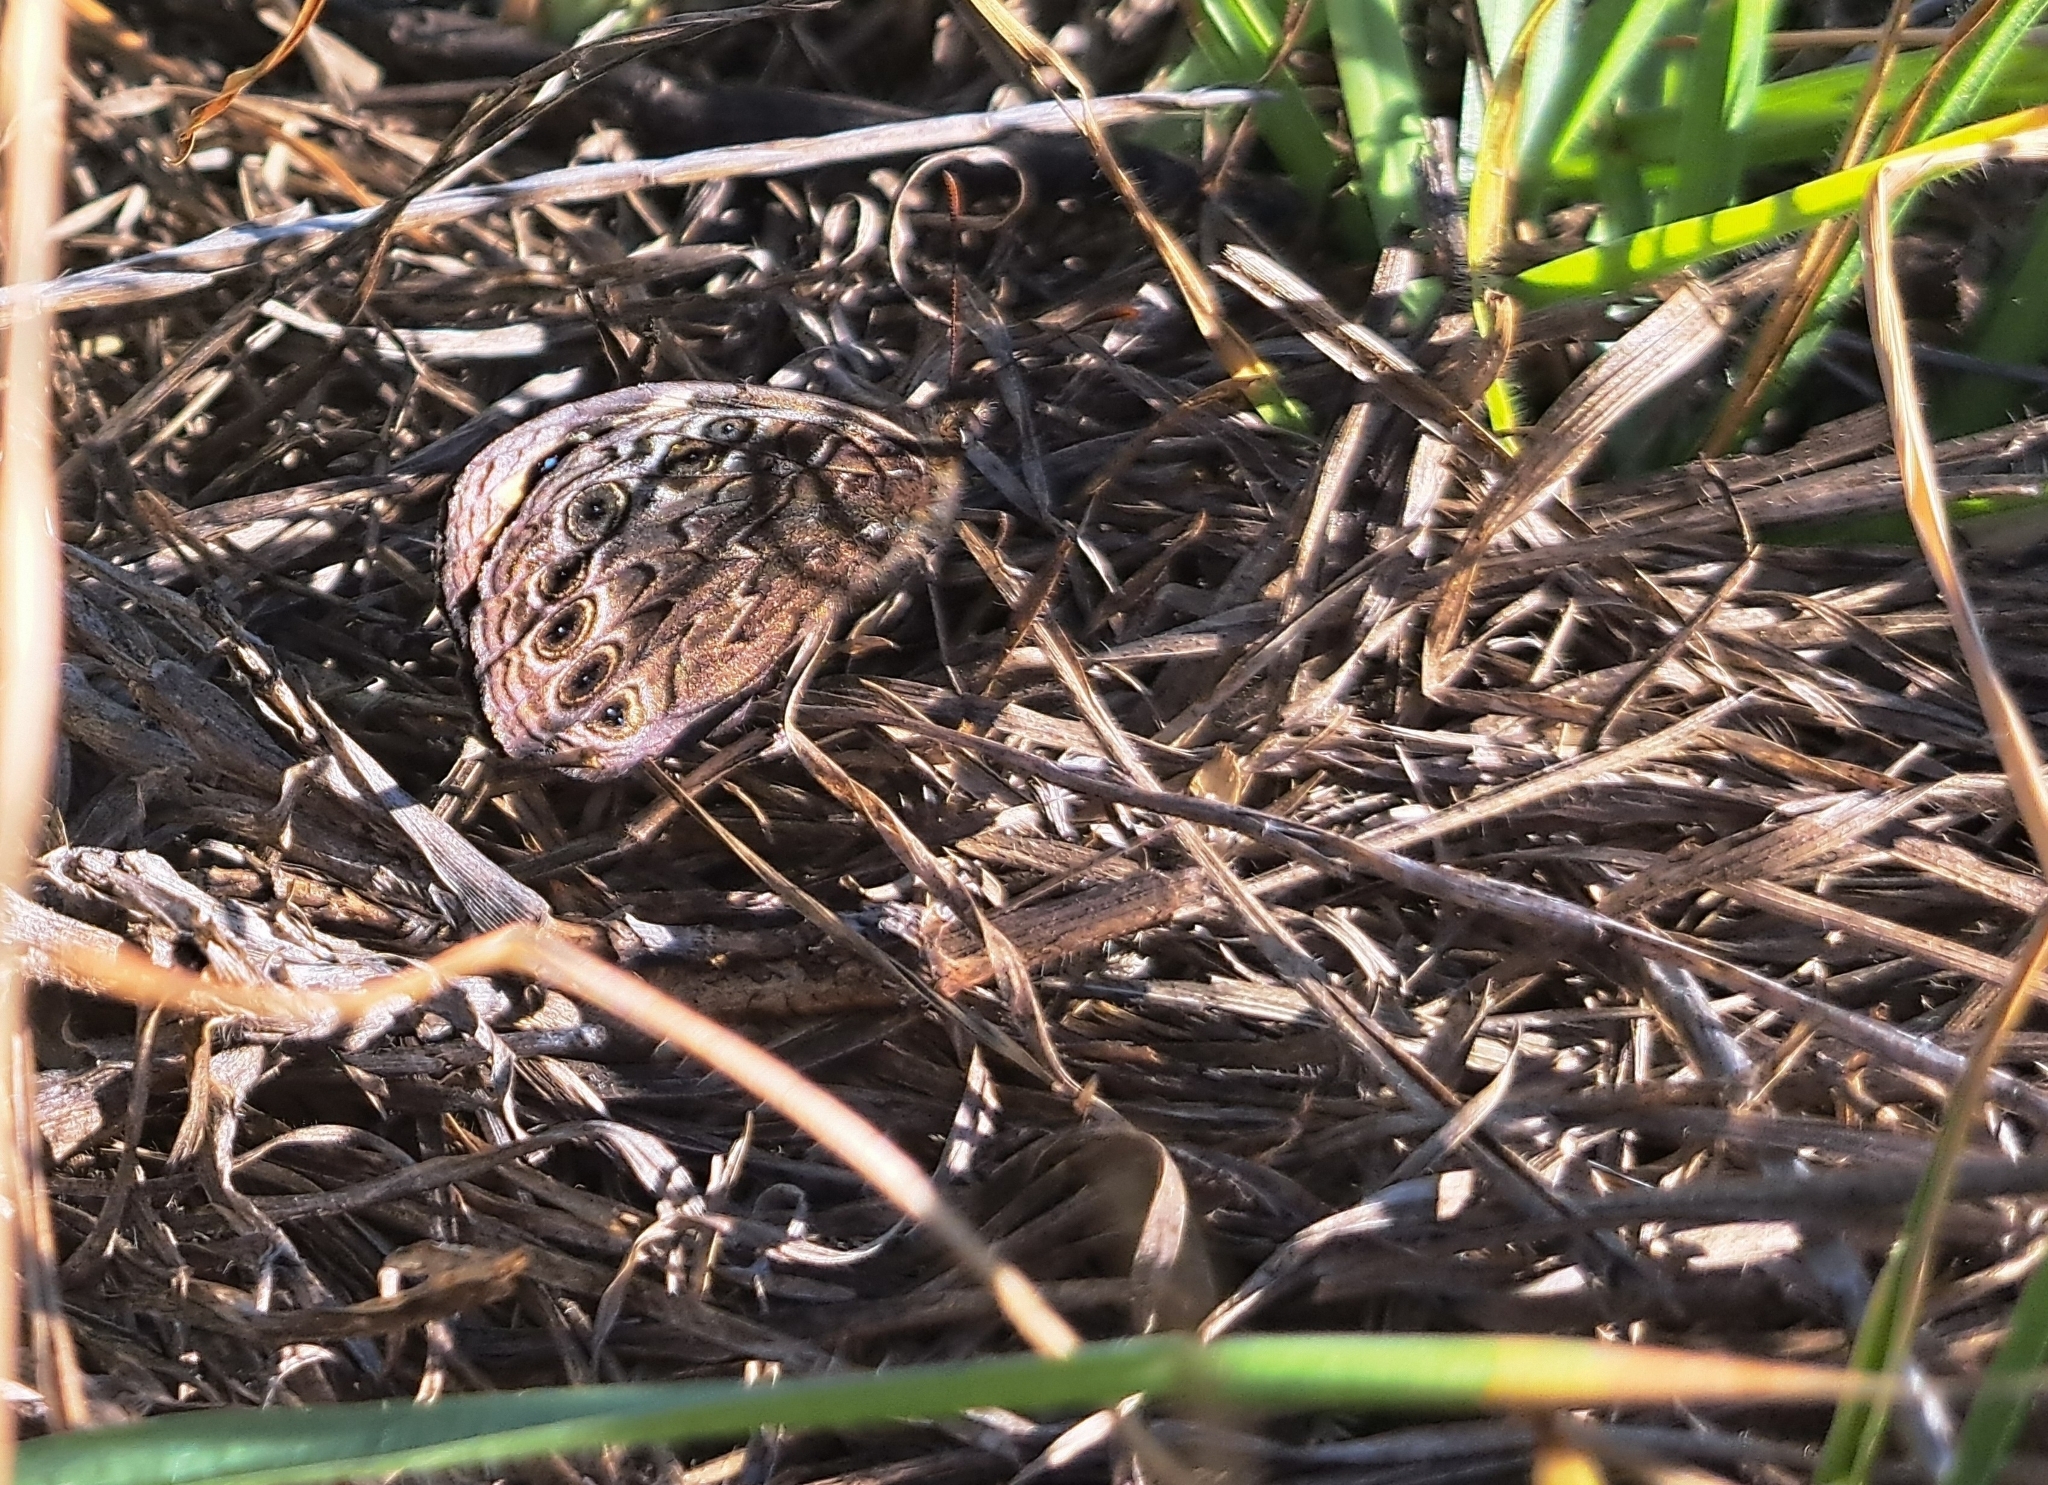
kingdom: Animalia
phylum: Arthropoda
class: Insecta
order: Lepidoptera
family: Nymphalidae
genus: Dira
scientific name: Dira clytus
